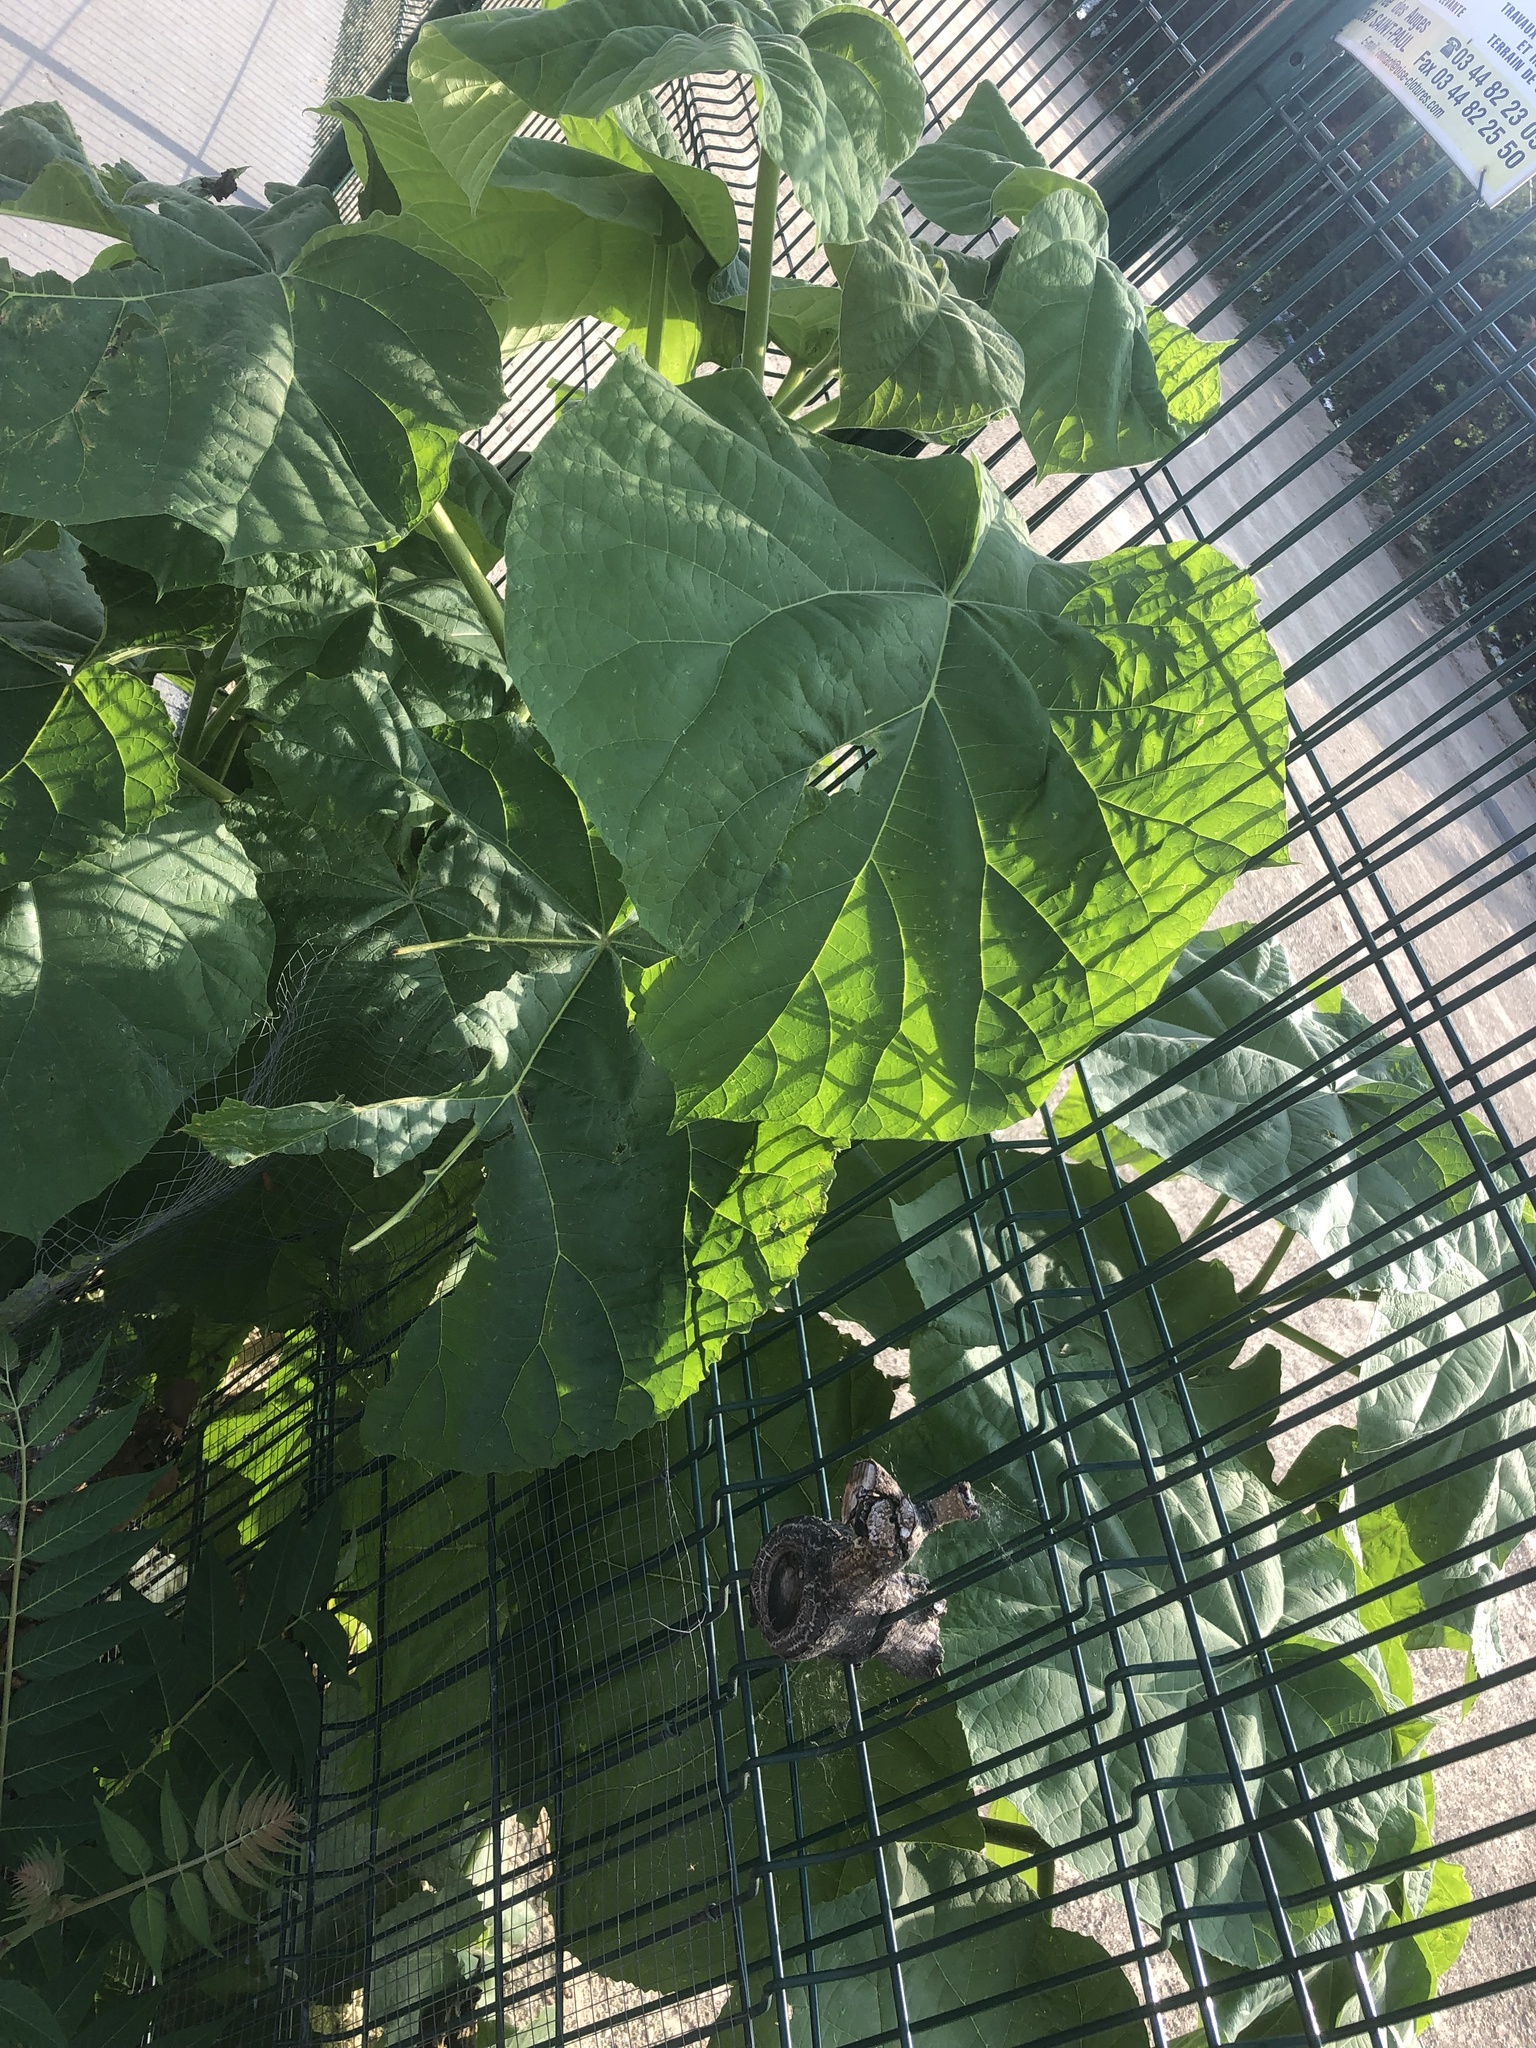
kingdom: Plantae
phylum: Tracheophyta
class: Magnoliopsida
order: Lamiales
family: Paulowniaceae
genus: Paulownia
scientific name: Paulownia tomentosa
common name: Foxglove-tree
